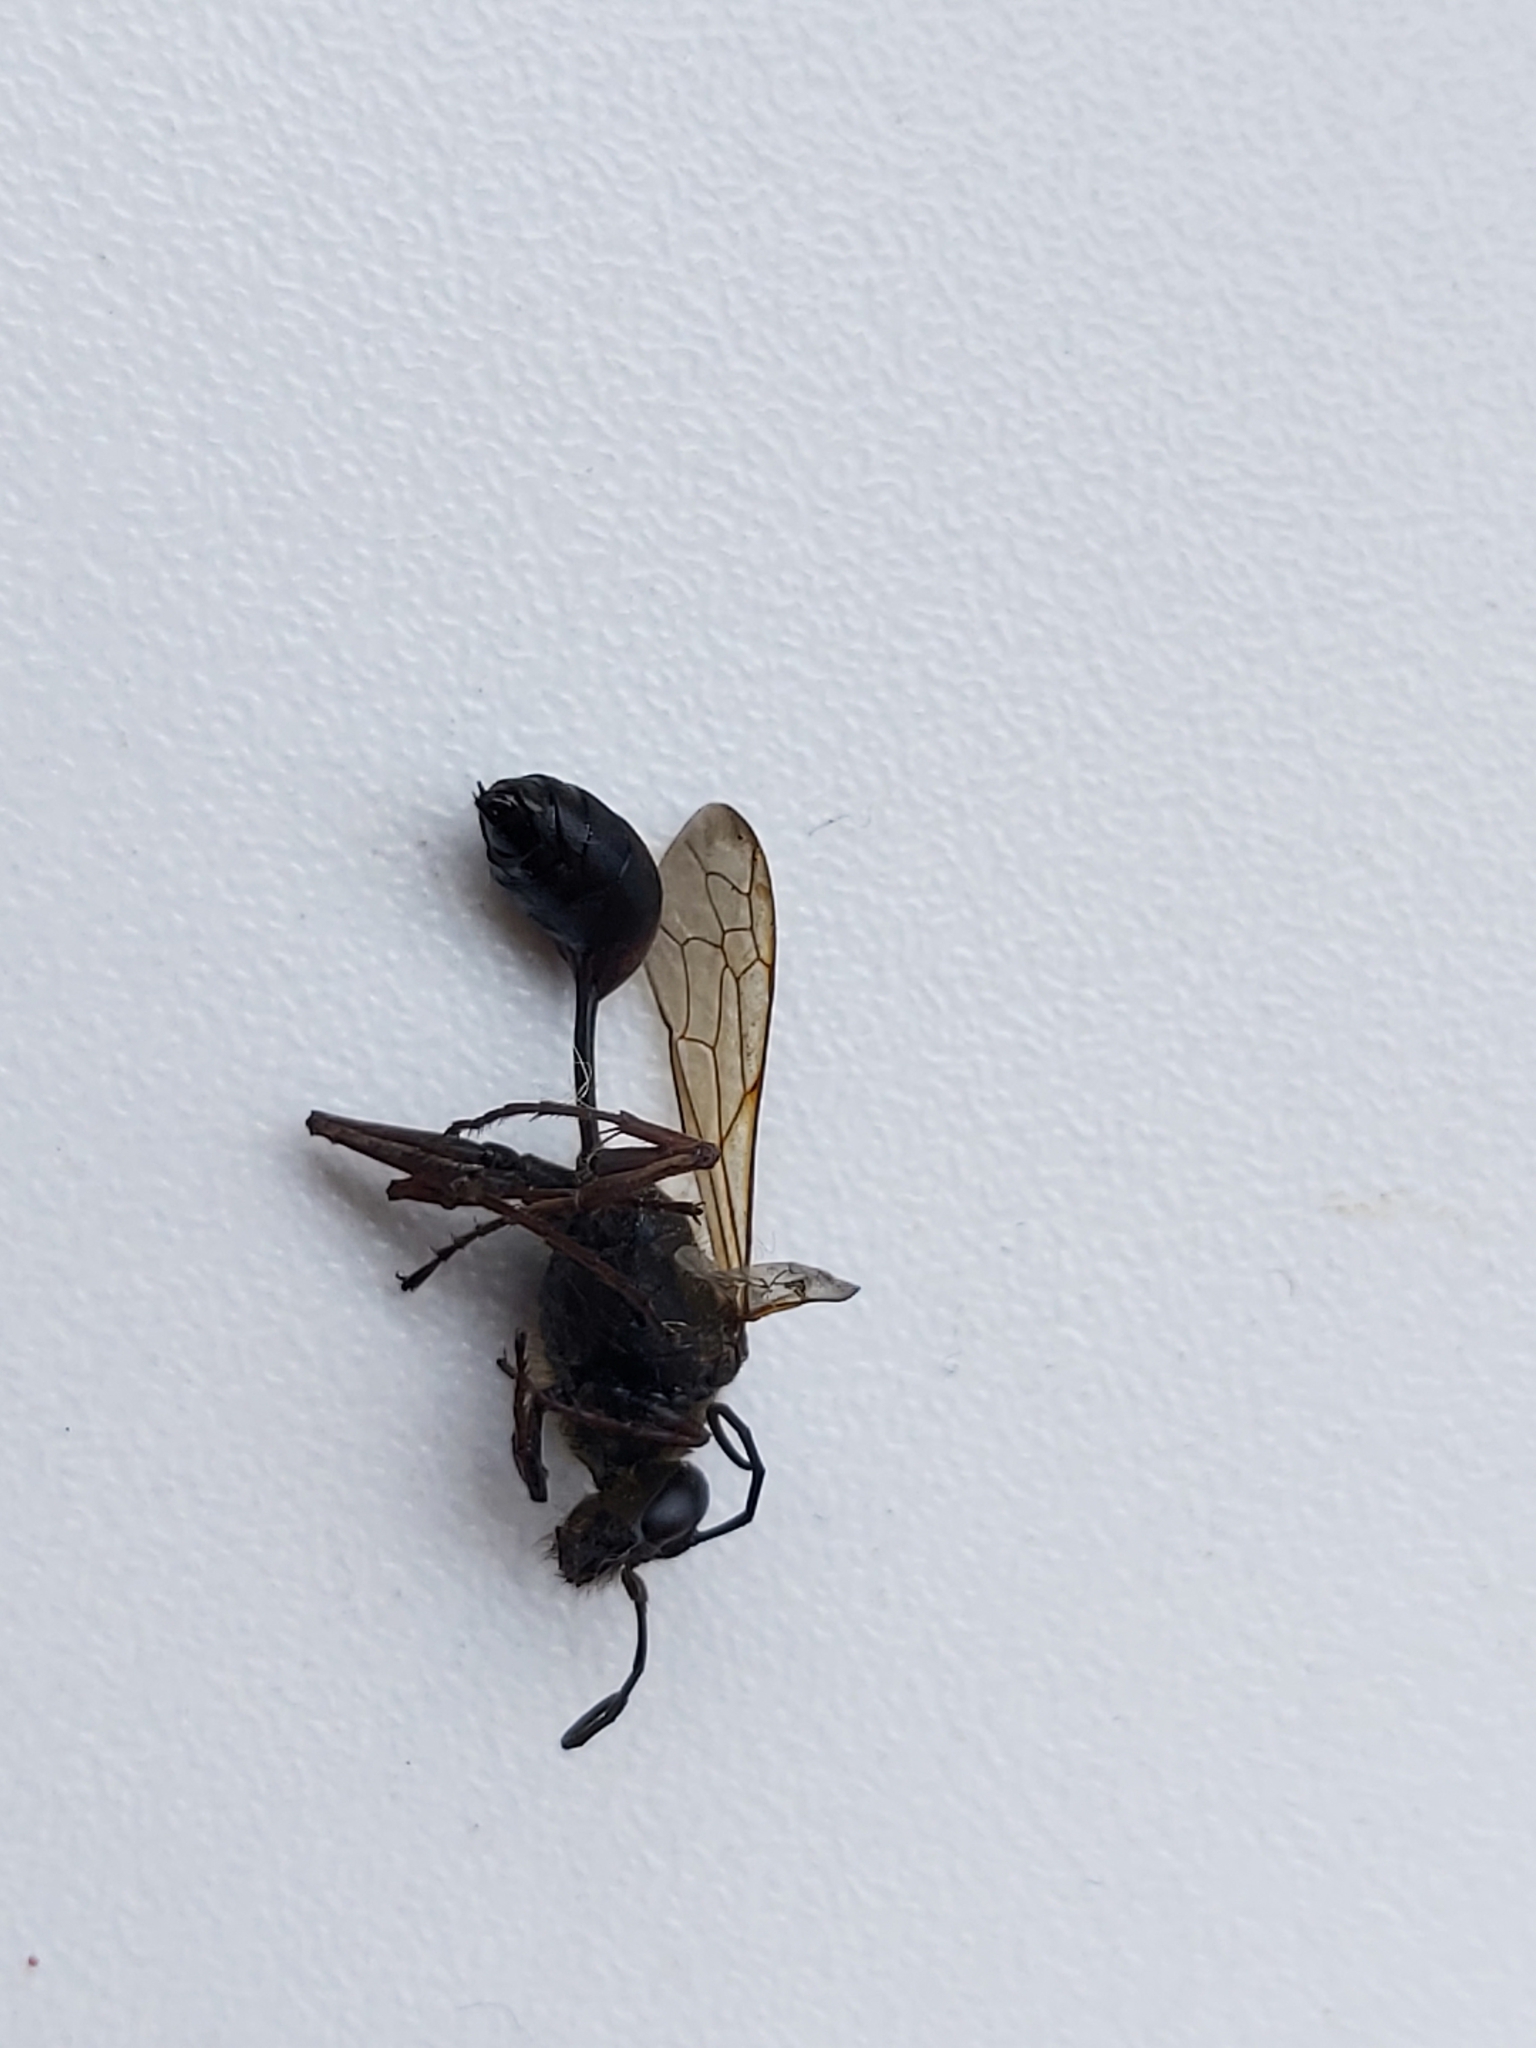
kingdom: Animalia
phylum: Arthropoda
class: Insecta
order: Hymenoptera
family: Sphecidae
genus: Sceliphron
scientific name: Sceliphron curvatum
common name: Pèlopèe
